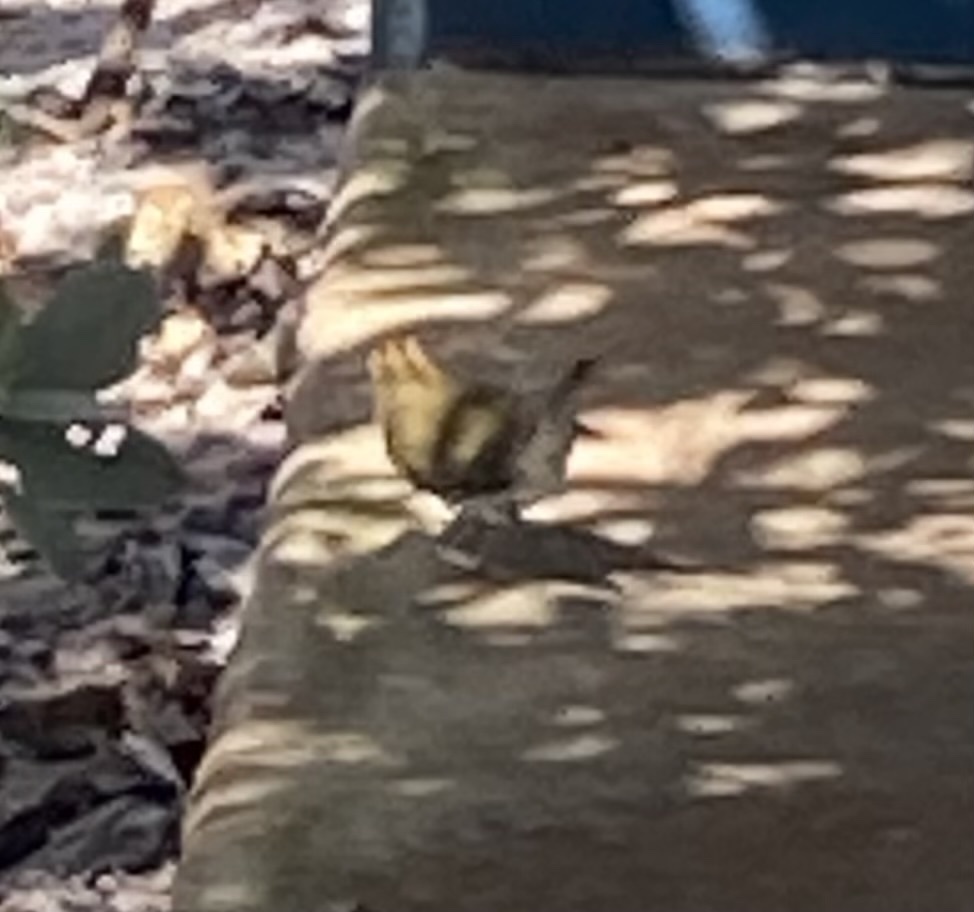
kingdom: Animalia
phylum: Chordata
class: Aves
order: Passeriformes
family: Parulidae
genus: Seiurus
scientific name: Seiurus aurocapilla
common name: Ovenbird
